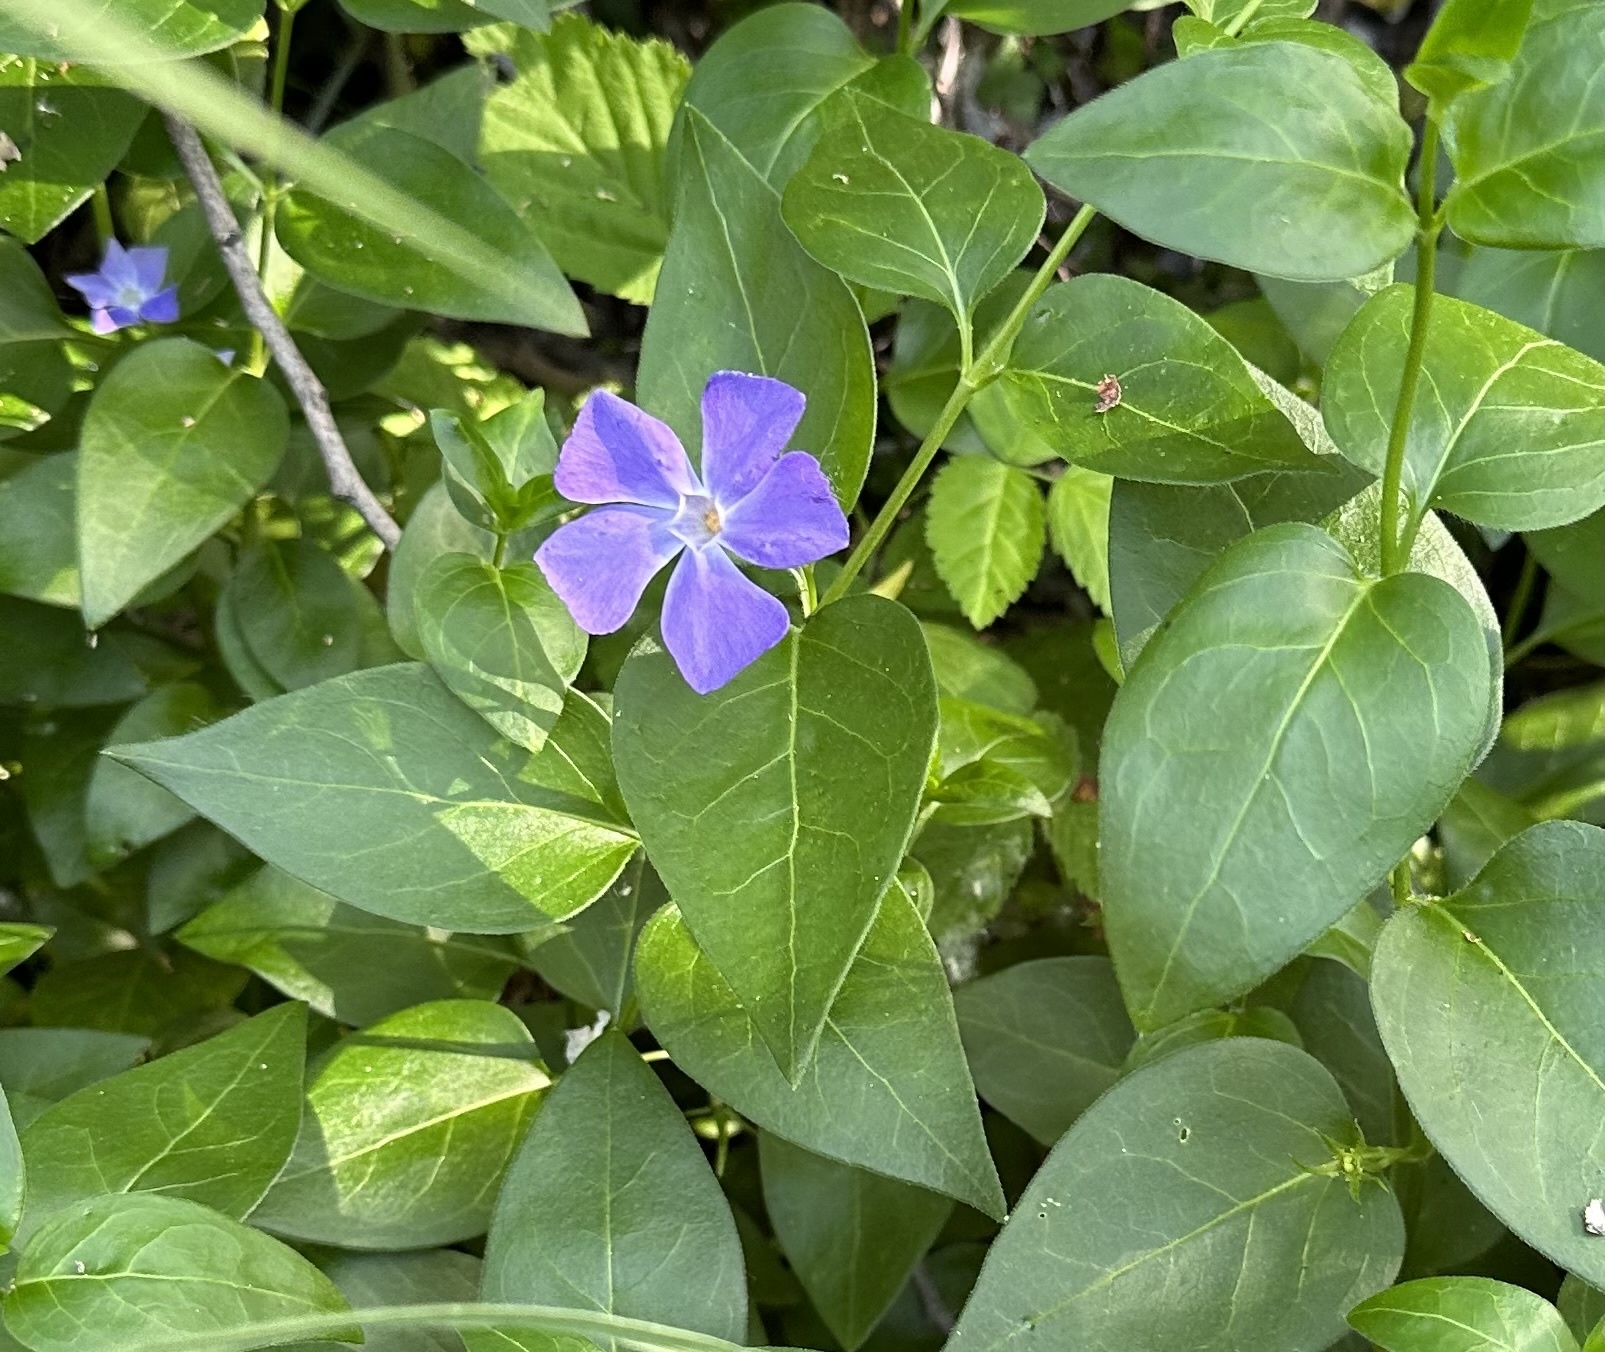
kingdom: Plantae
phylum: Tracheophyta
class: Magnoliopsida
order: Gentianales
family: Apocynaceae
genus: Vinca
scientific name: Vinca major
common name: Greater periwinkle
